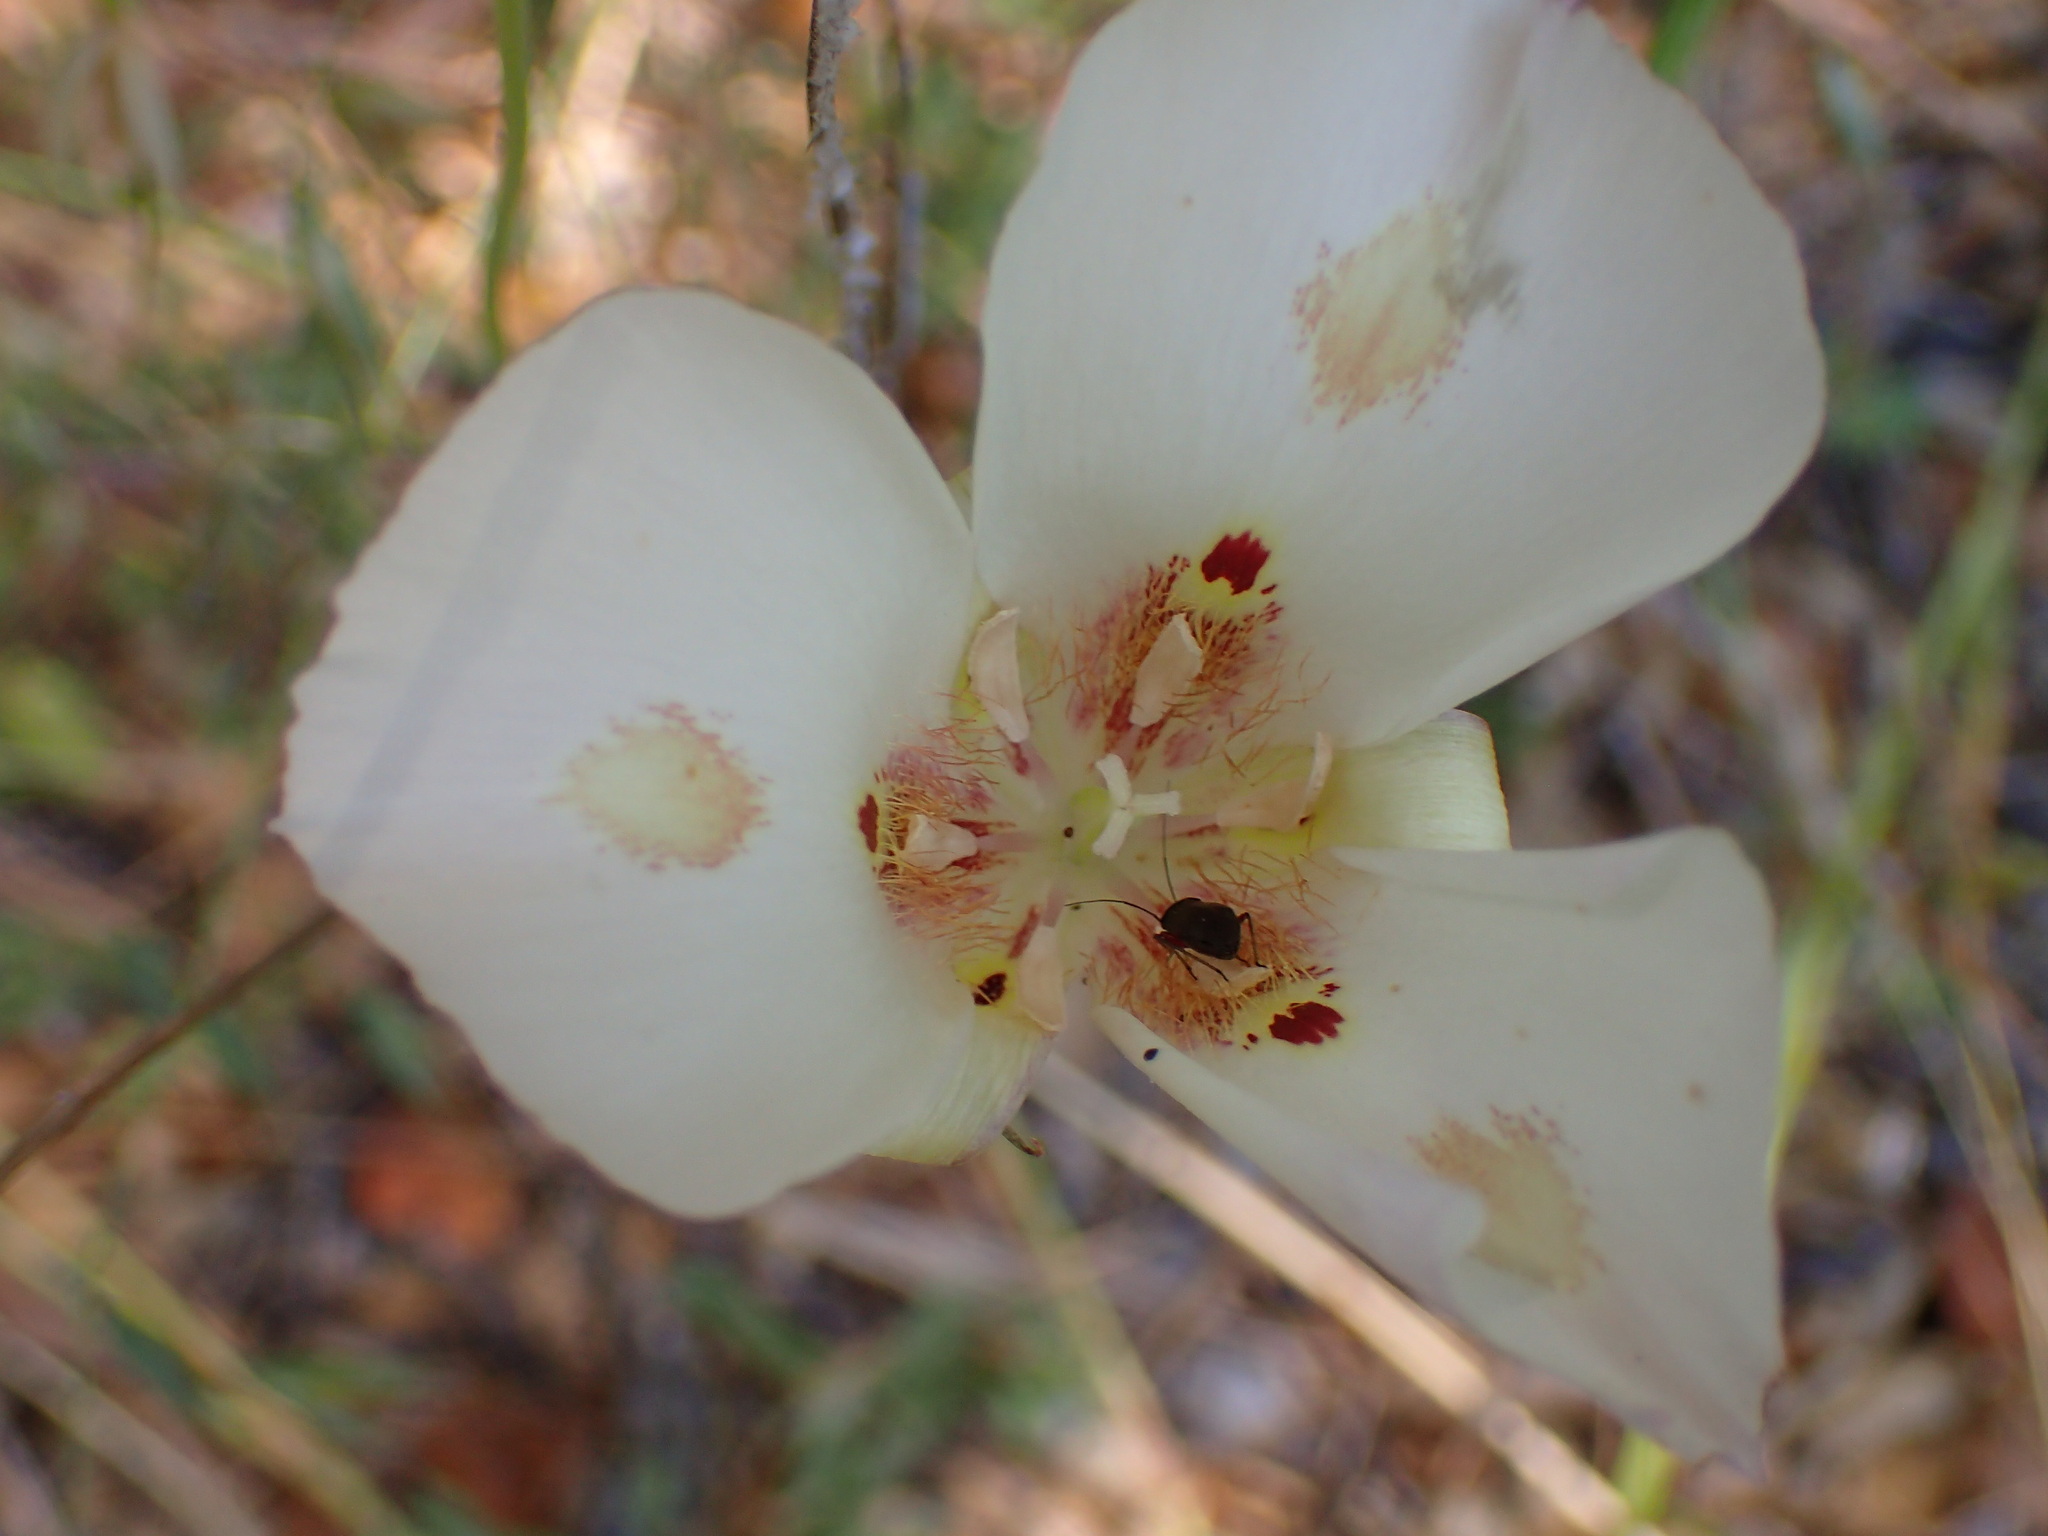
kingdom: Plantae
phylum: Tracheophyta
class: Liliopsida
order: Liliales
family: Liliaceae
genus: Calochortus
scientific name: Calochortus venustus
